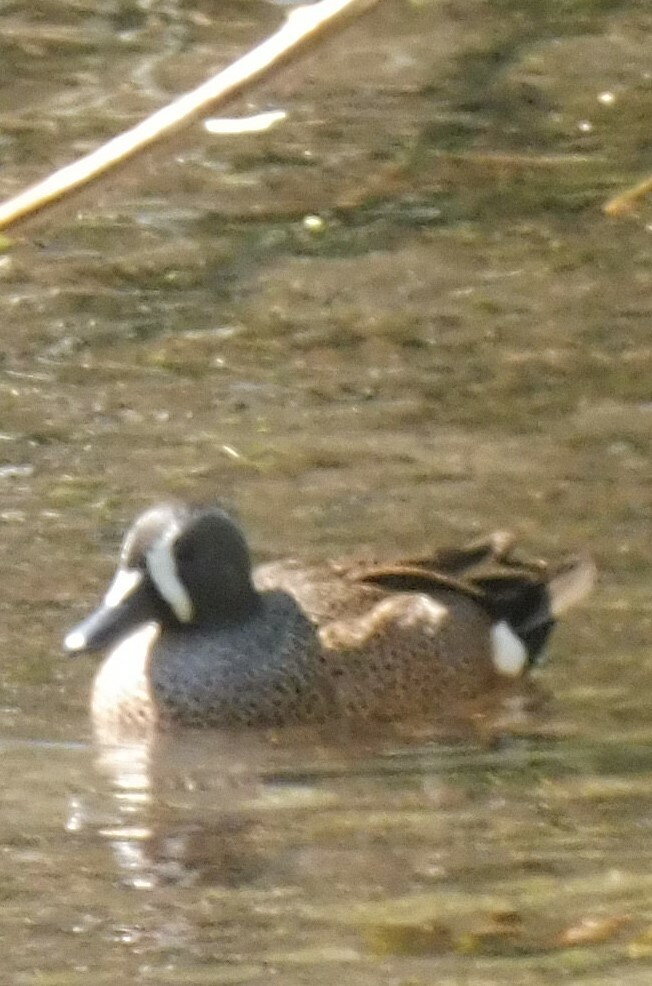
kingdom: Animalia
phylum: Chordata
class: Aves
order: Anseriformes
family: Anatidae
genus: Spatula
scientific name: Spatula discors
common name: Blue-winged teal
